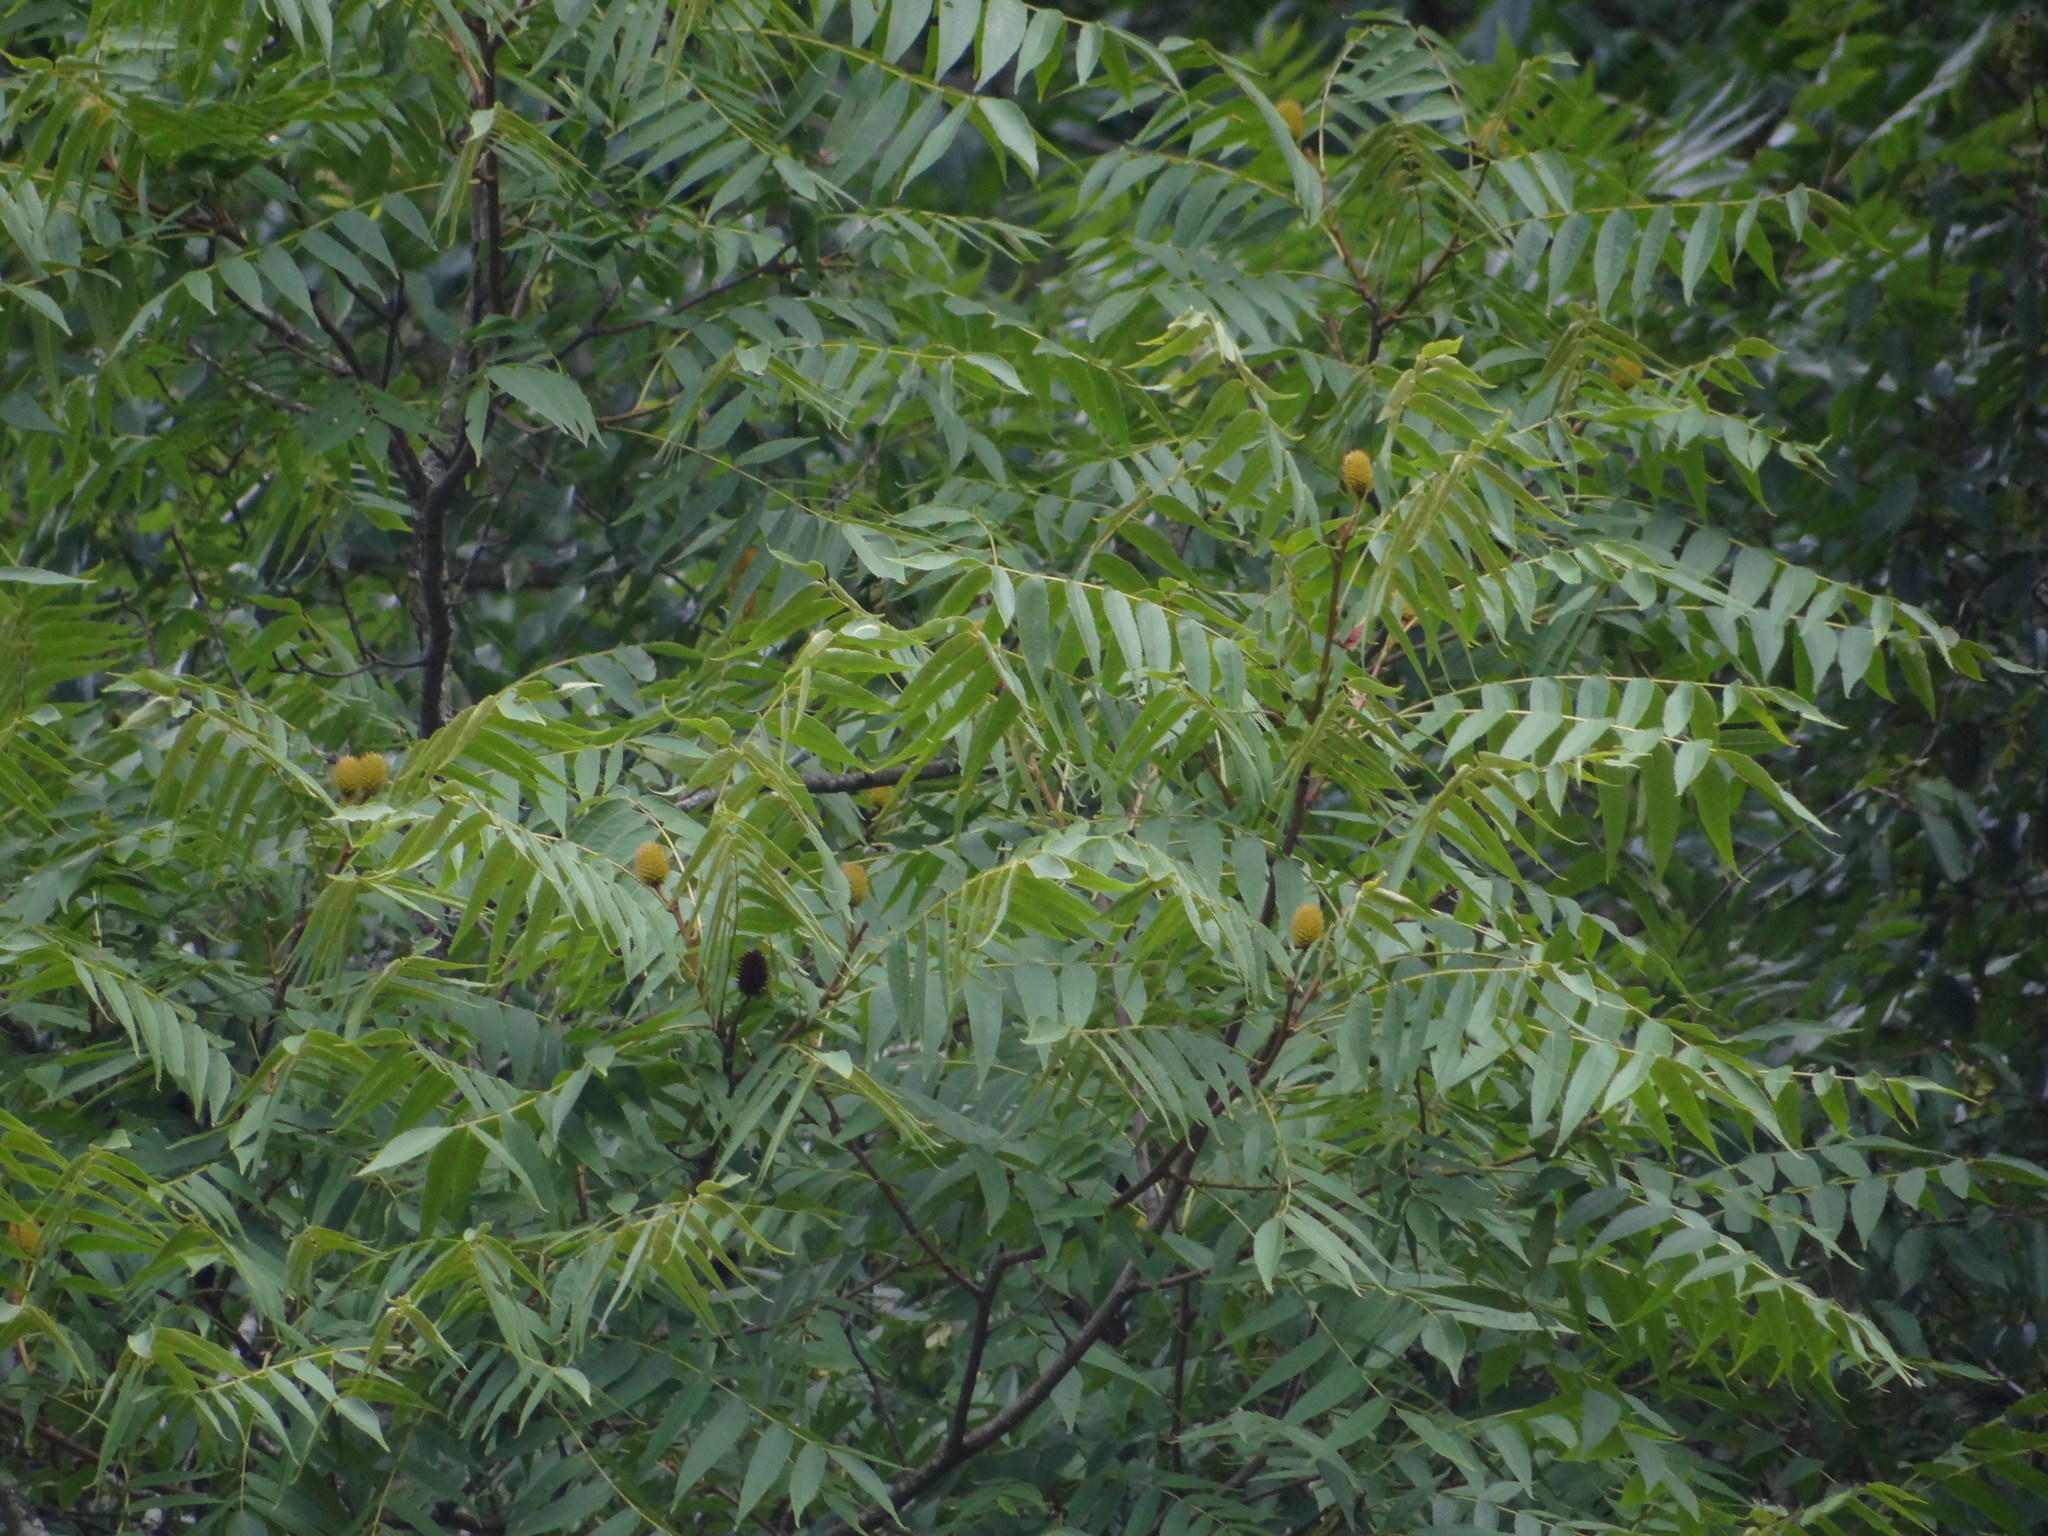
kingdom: Plantae
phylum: Tracheophyta
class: Magnoliopsida
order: Fagales
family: Juglandaceae
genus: Platycarya
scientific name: Platycarya strobilacea
